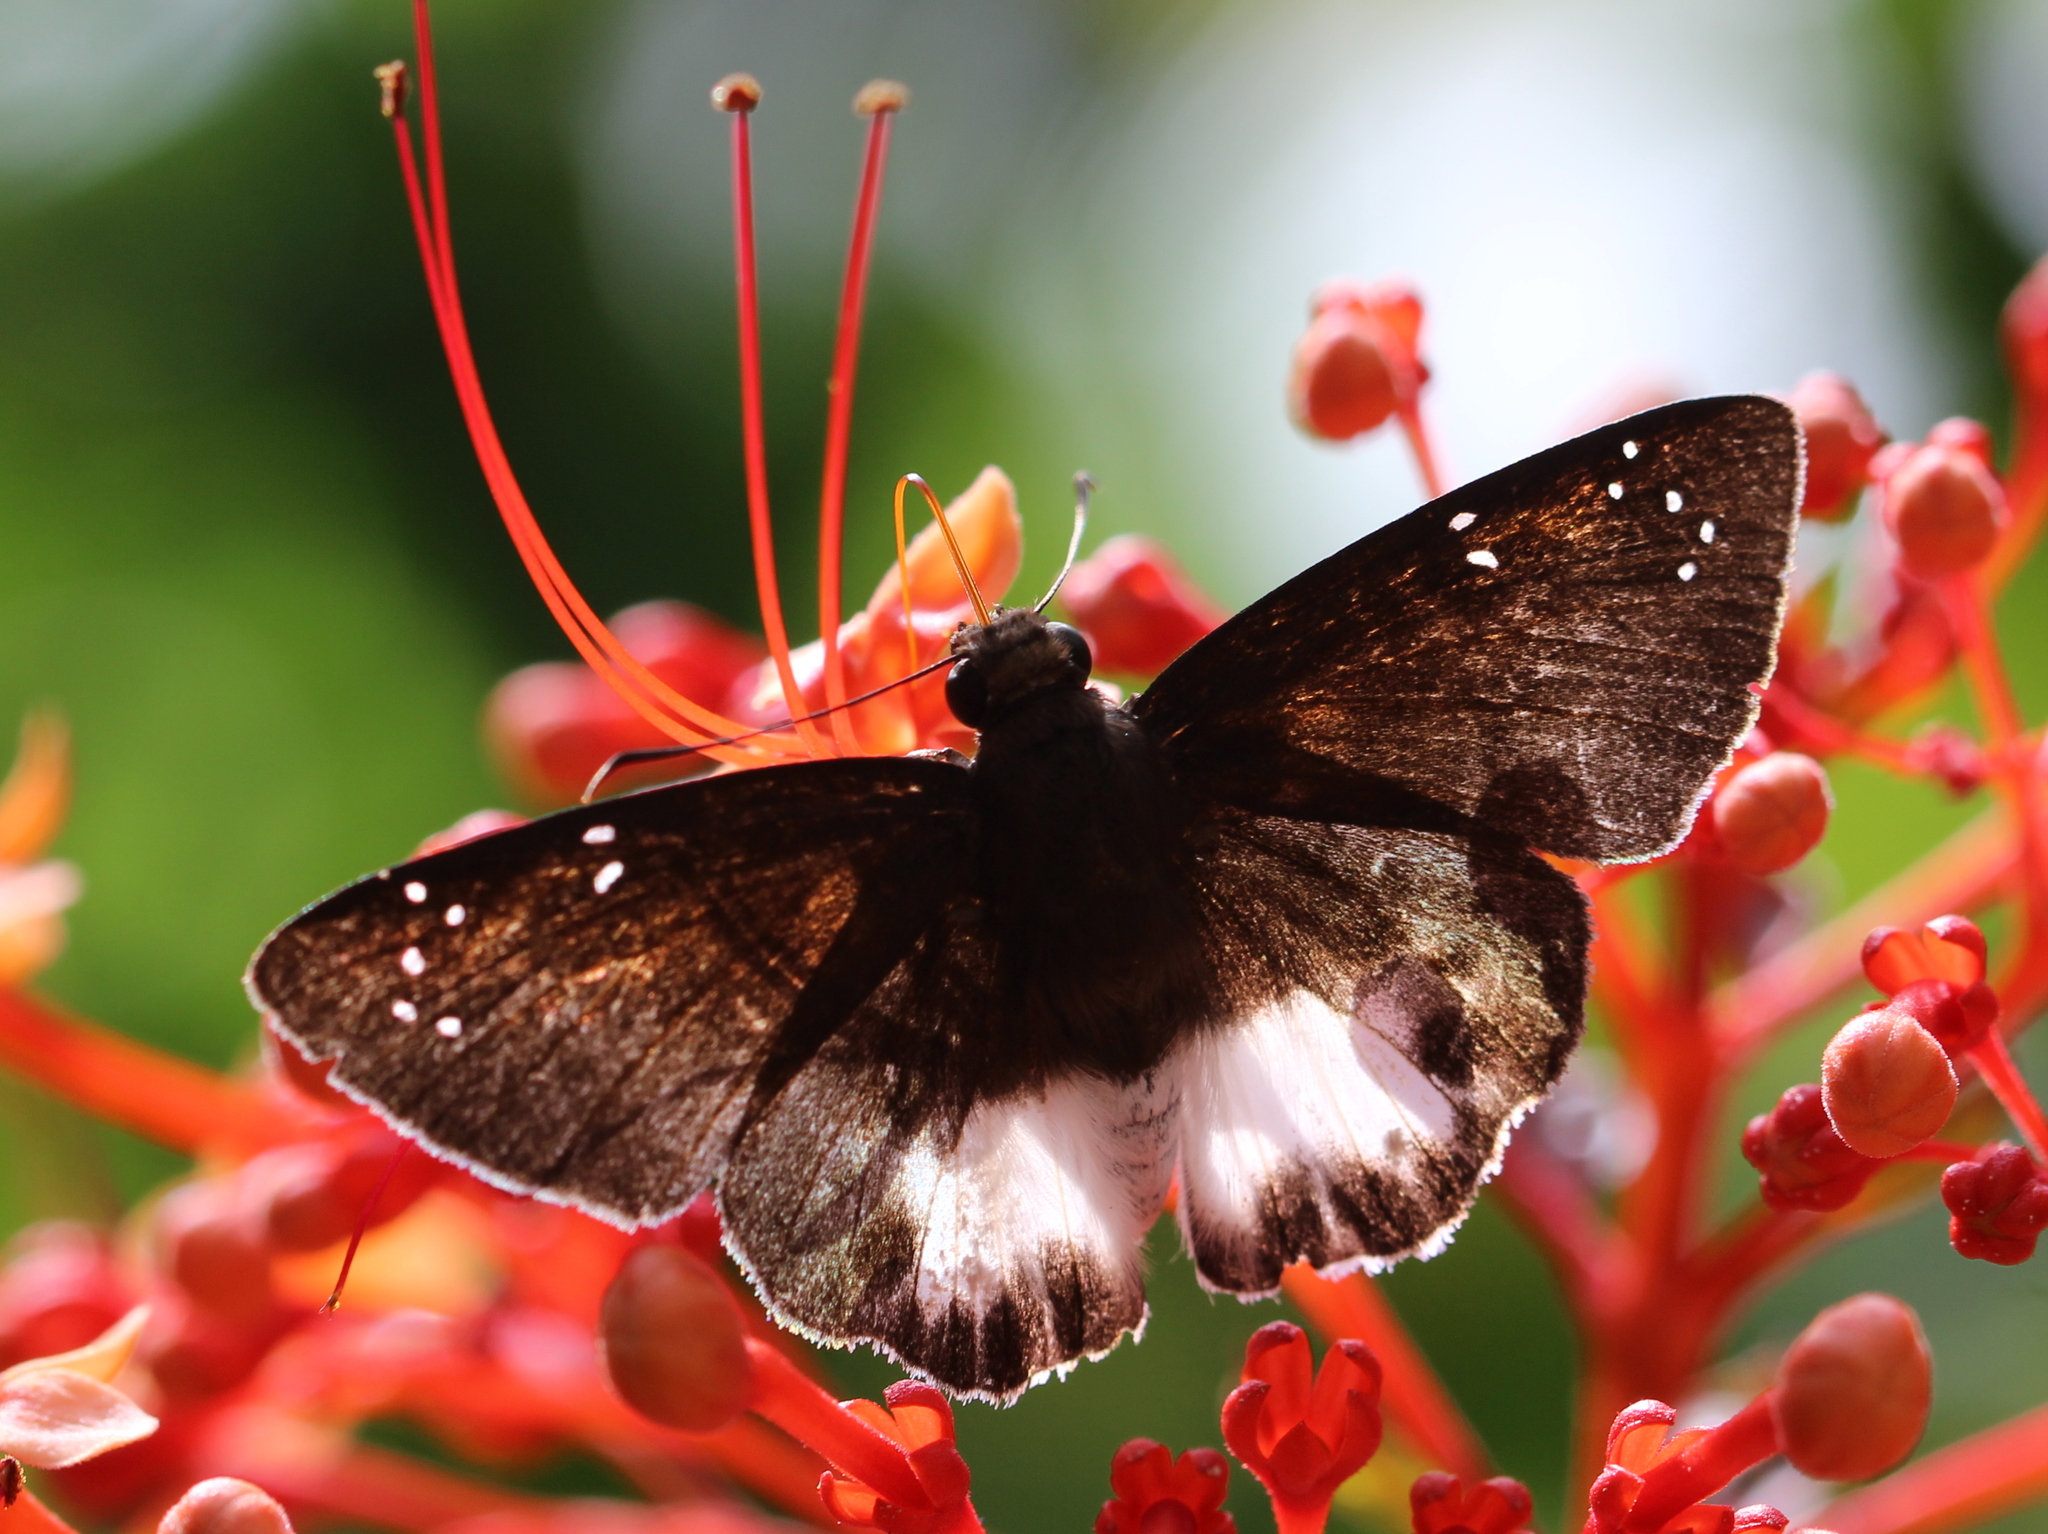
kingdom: Animalia
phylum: Arthropoda
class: Insecta
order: Lepidoptera
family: Hesperiidae
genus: Tagiades
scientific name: Tagiades litigiosa
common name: Water snow flat
